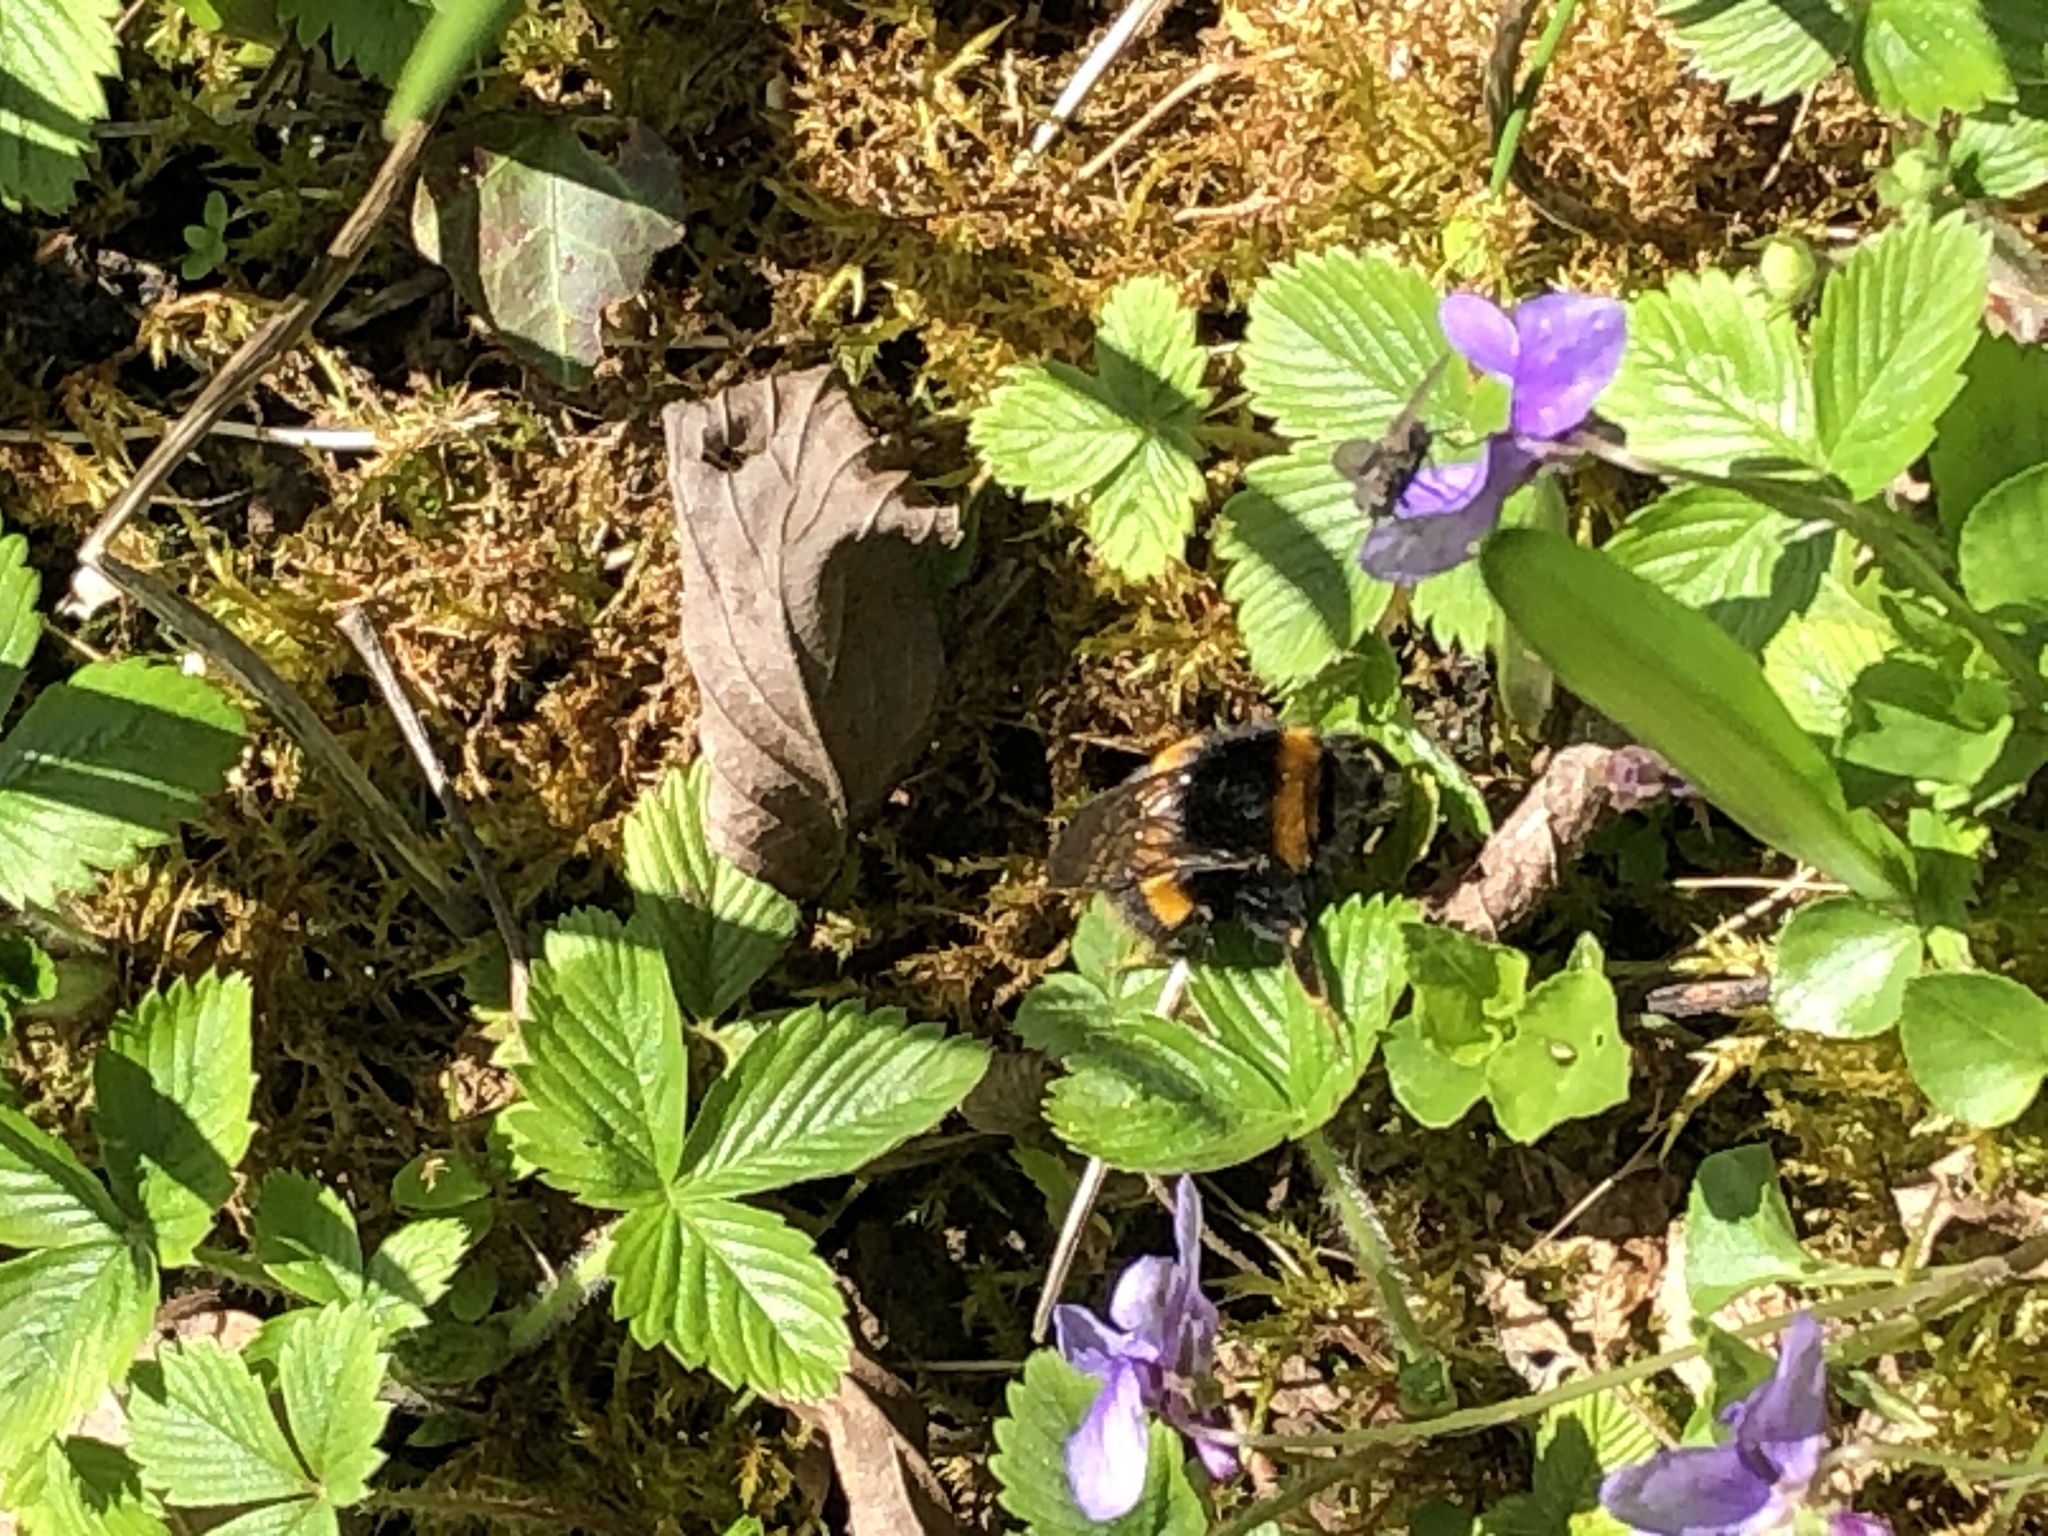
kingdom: Animalia
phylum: Arthropoda
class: Insecta
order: Hymenoptera
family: Apidae
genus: Bombus
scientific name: Bombus
